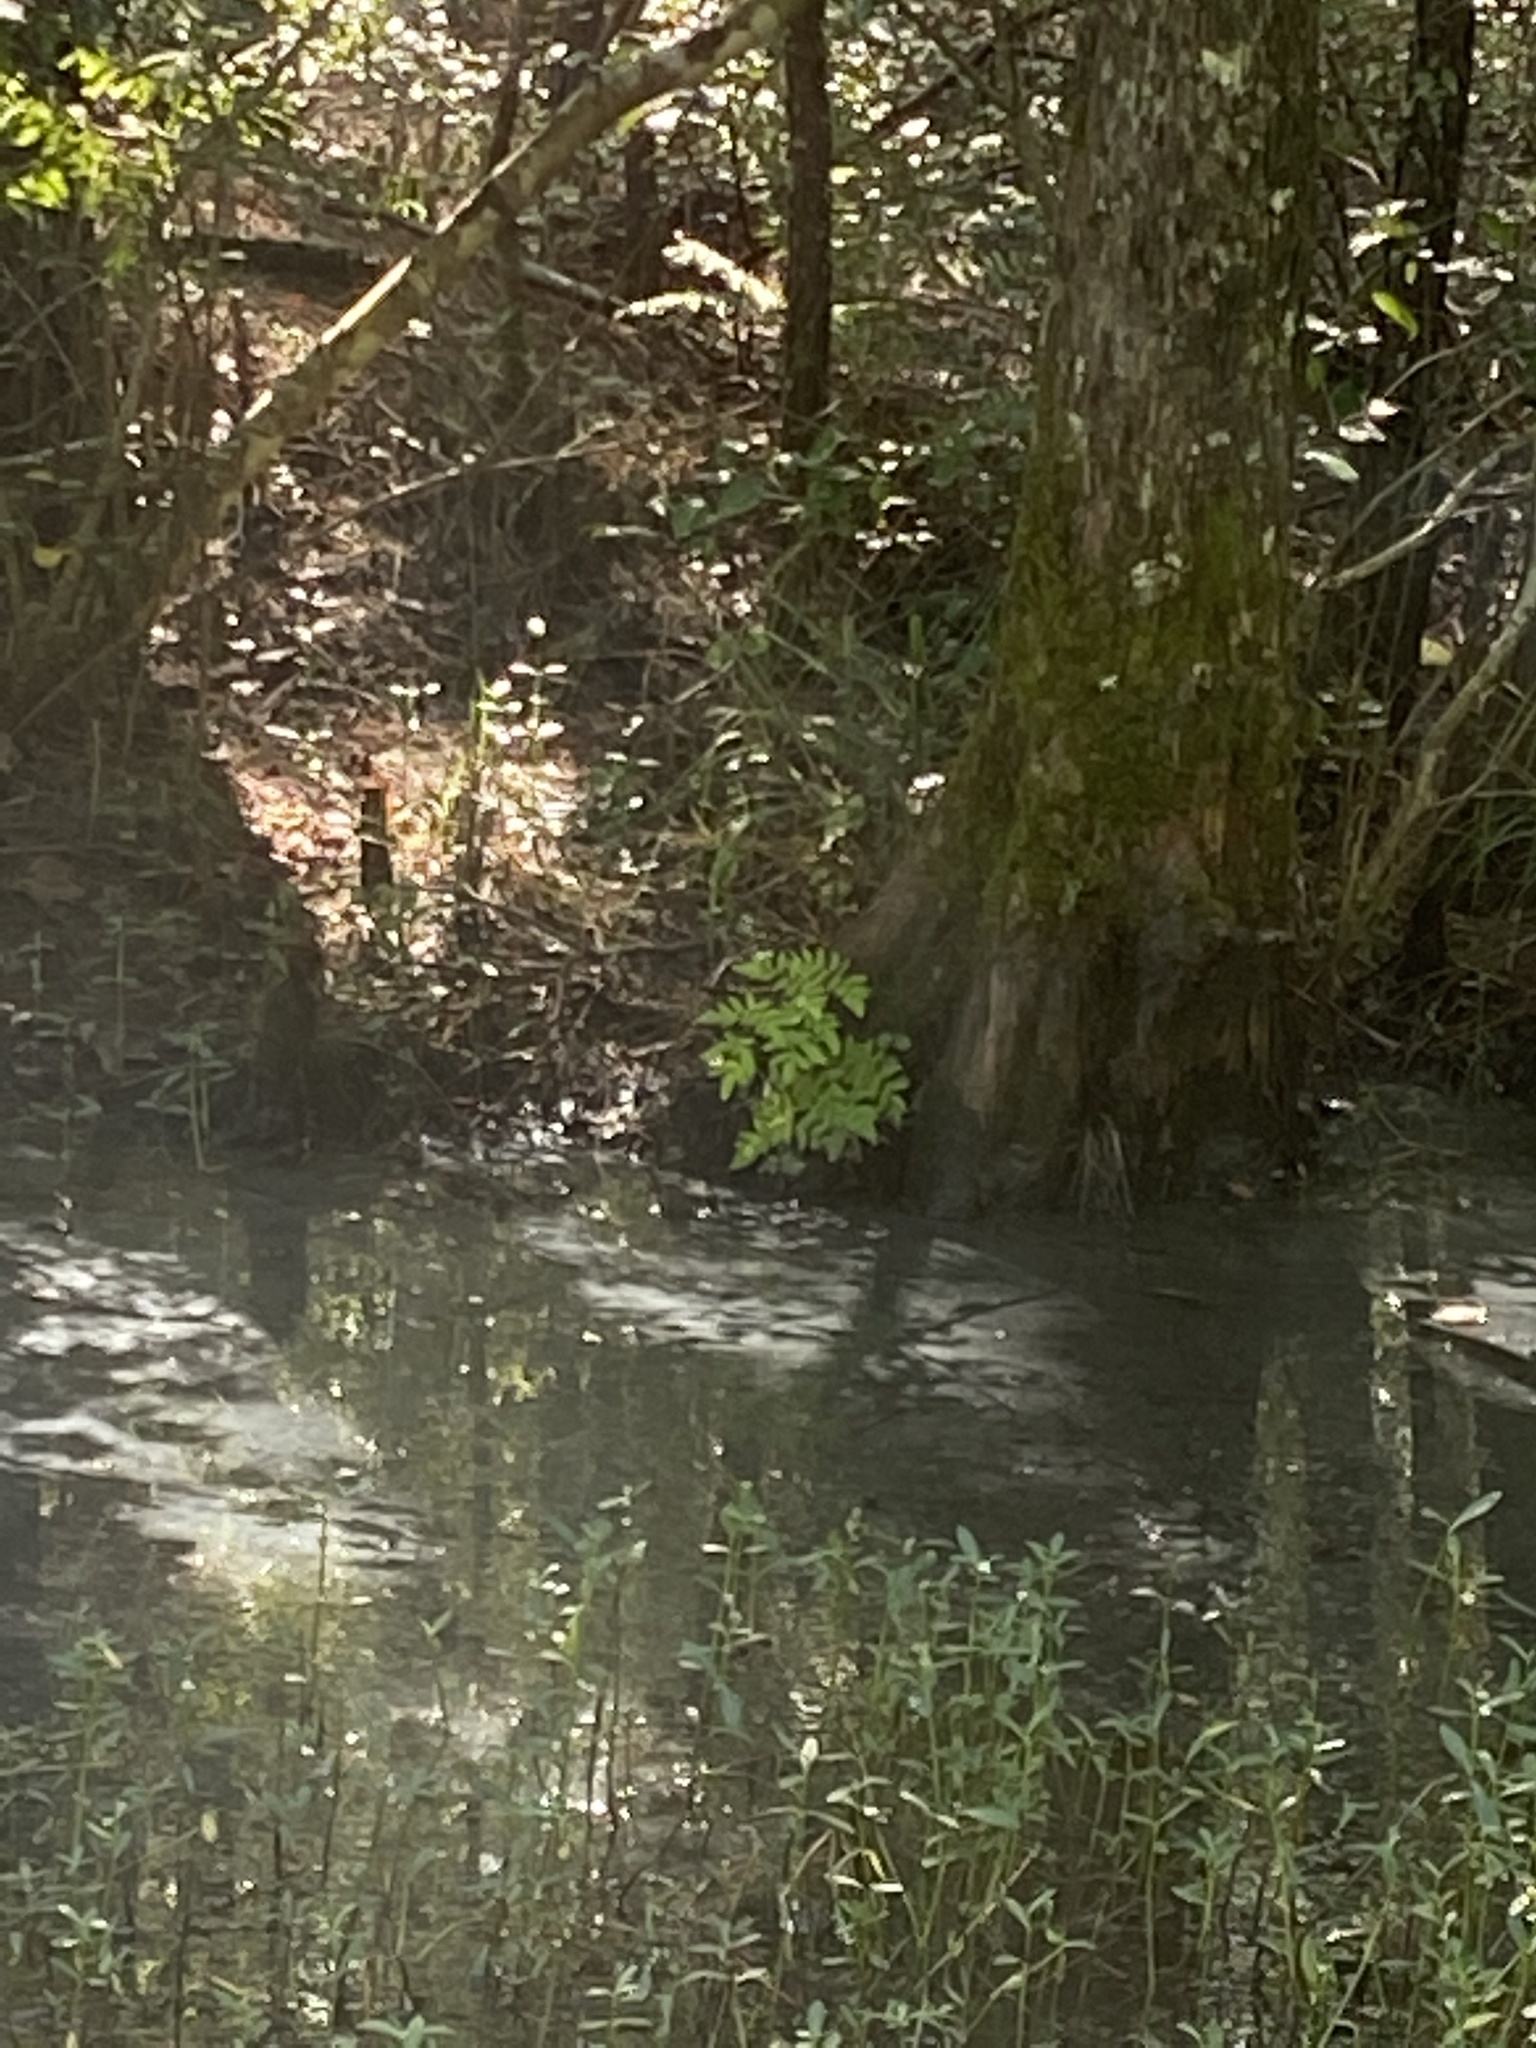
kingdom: Plantae
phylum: Tracheophyta
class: Polypodiopsida
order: Osmundales
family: Osmundaceae
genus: Osmunda
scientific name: Osmunda spectabilis
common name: American royal fern
